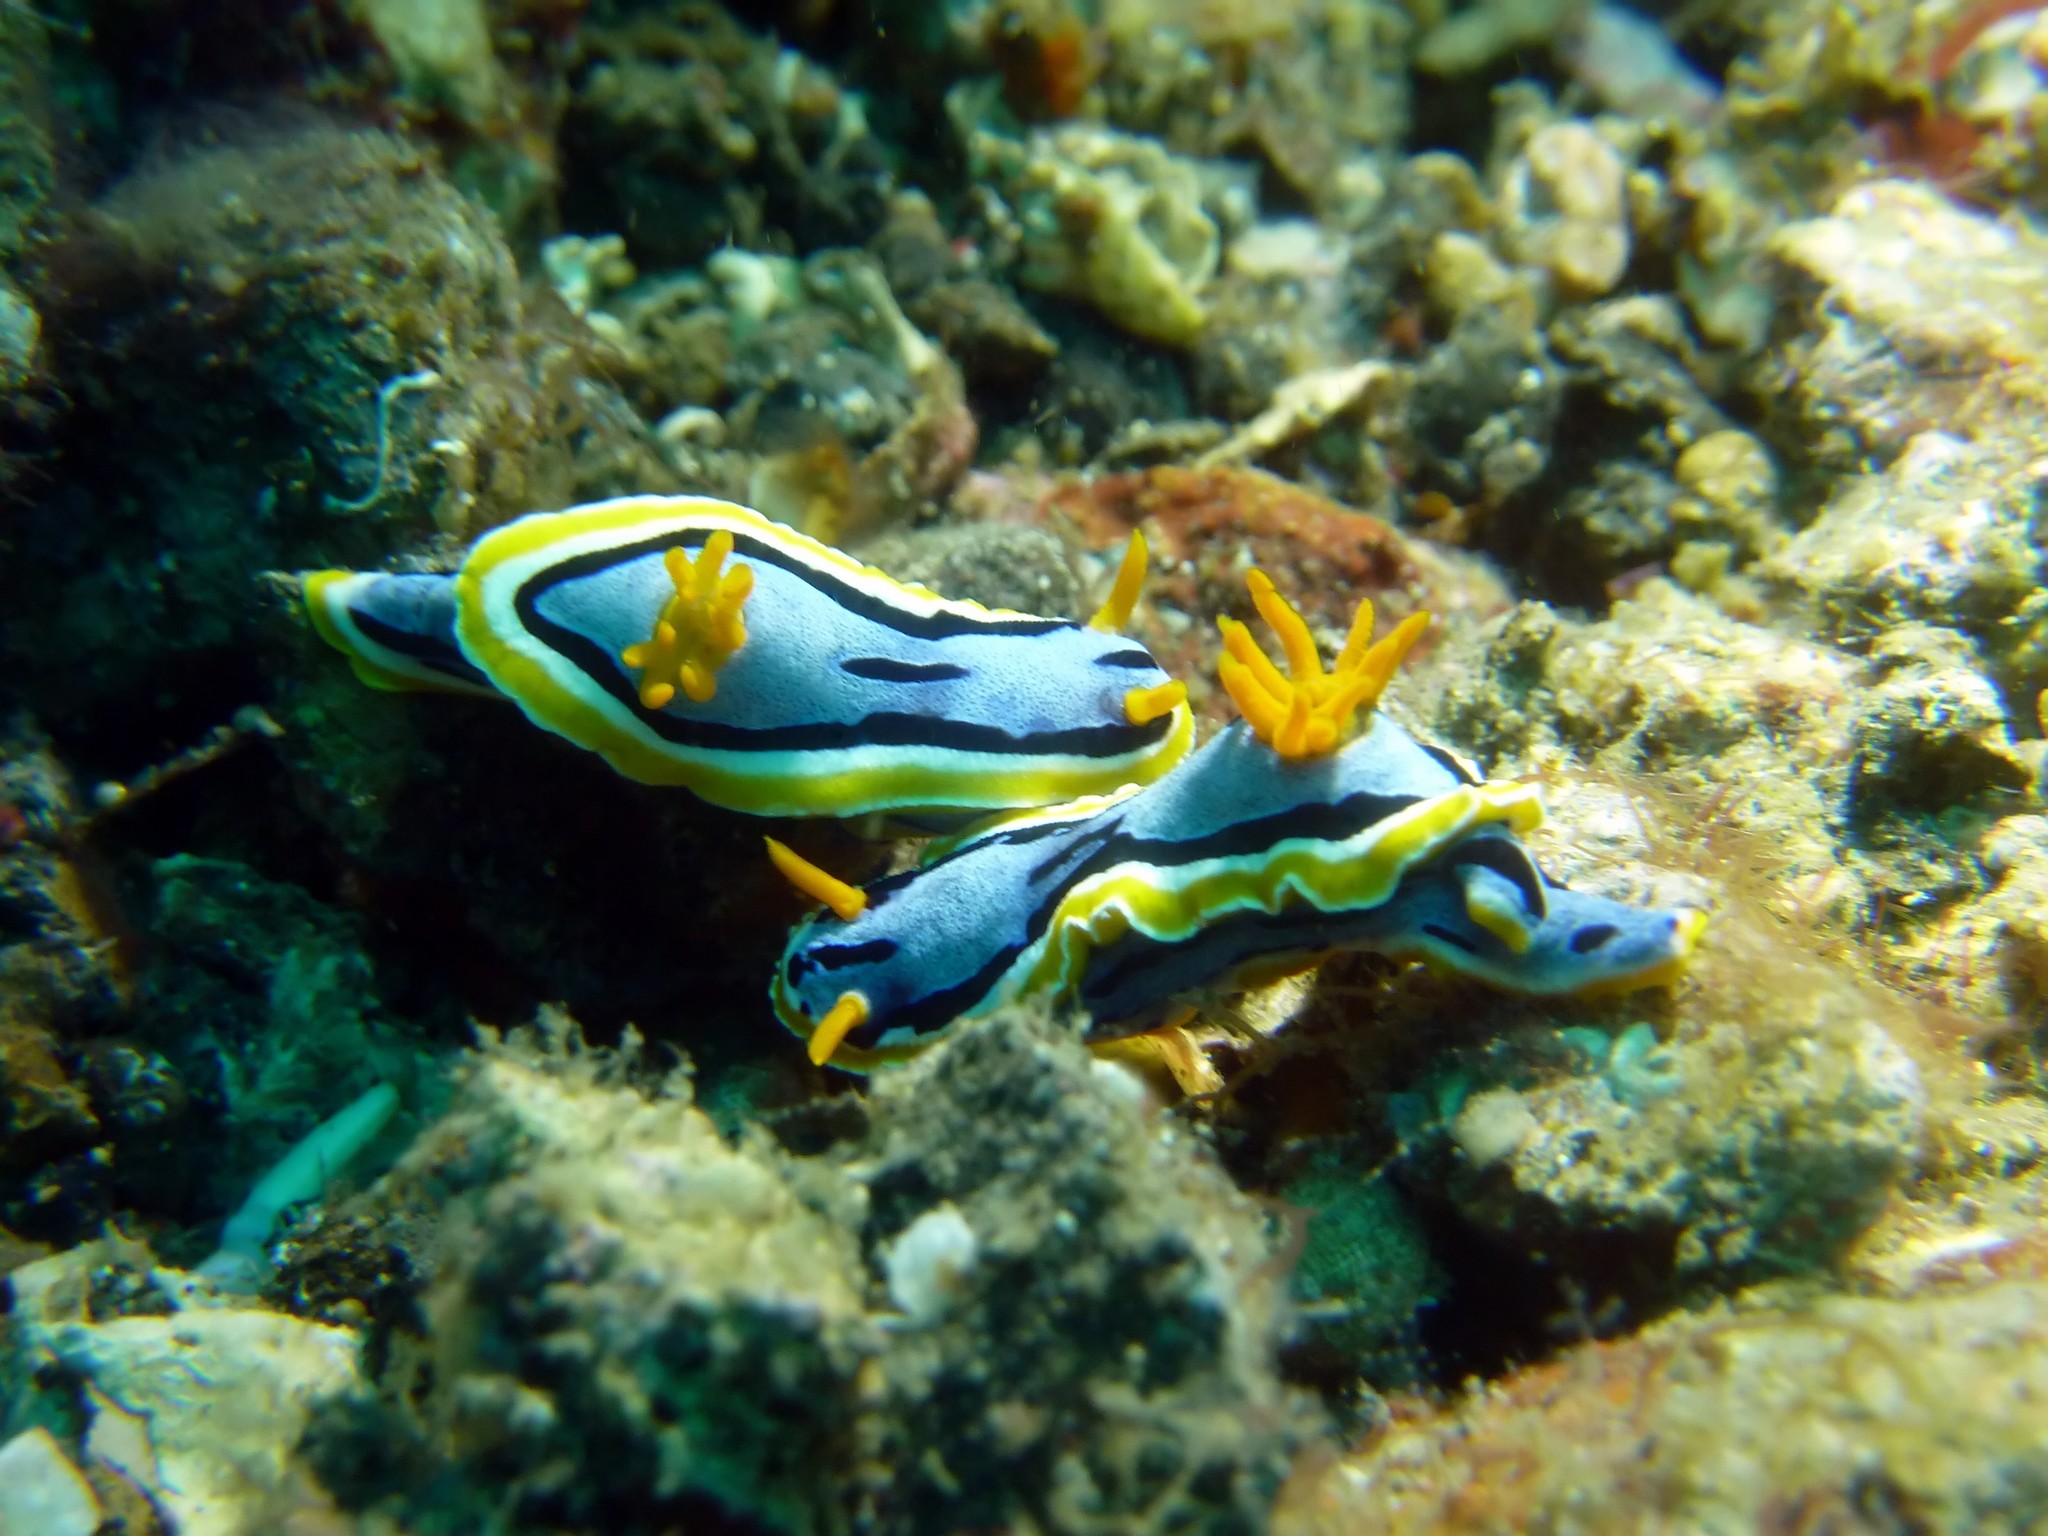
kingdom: Animalia
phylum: Mollusca
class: Gastropoda
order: Nudibranchia
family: Chromodorididae
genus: Chromodoris
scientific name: Chromodoris annae
